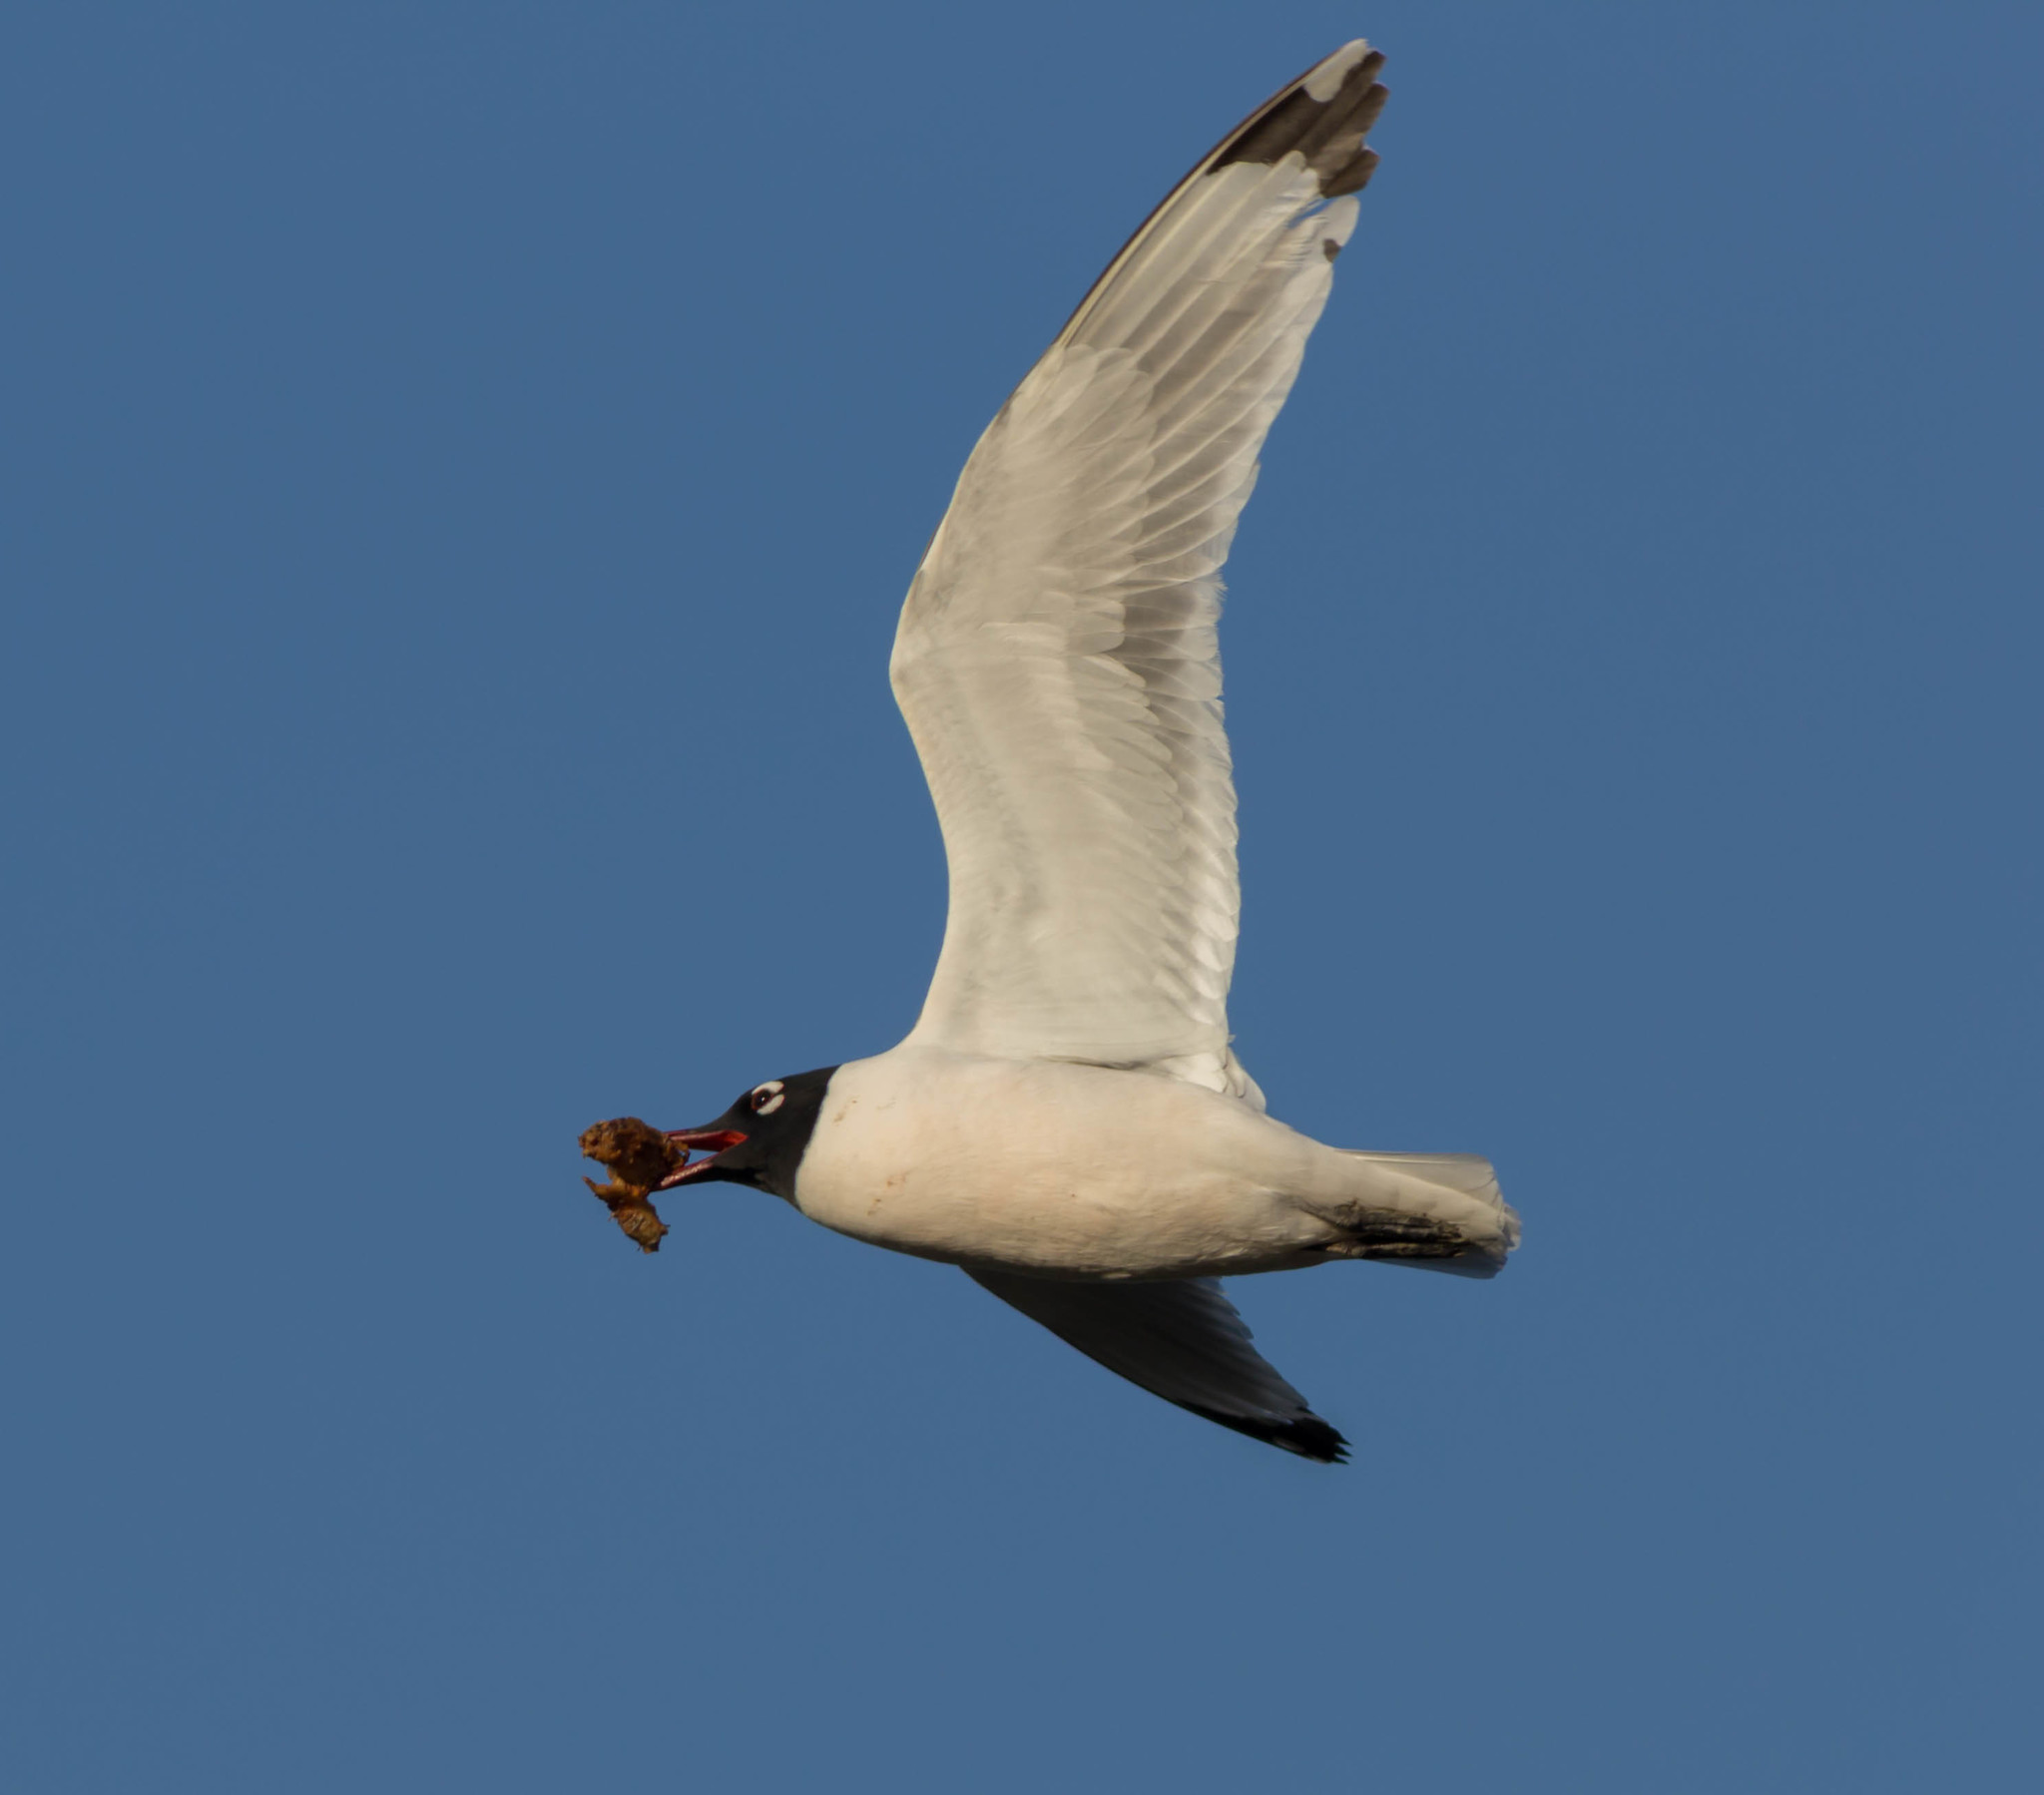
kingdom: Animalia
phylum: Chordata
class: Aves
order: Charadriiformes
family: Laridae
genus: Leucophaeus
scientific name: Leucophaeus pipixcan
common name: Franklin's gull
